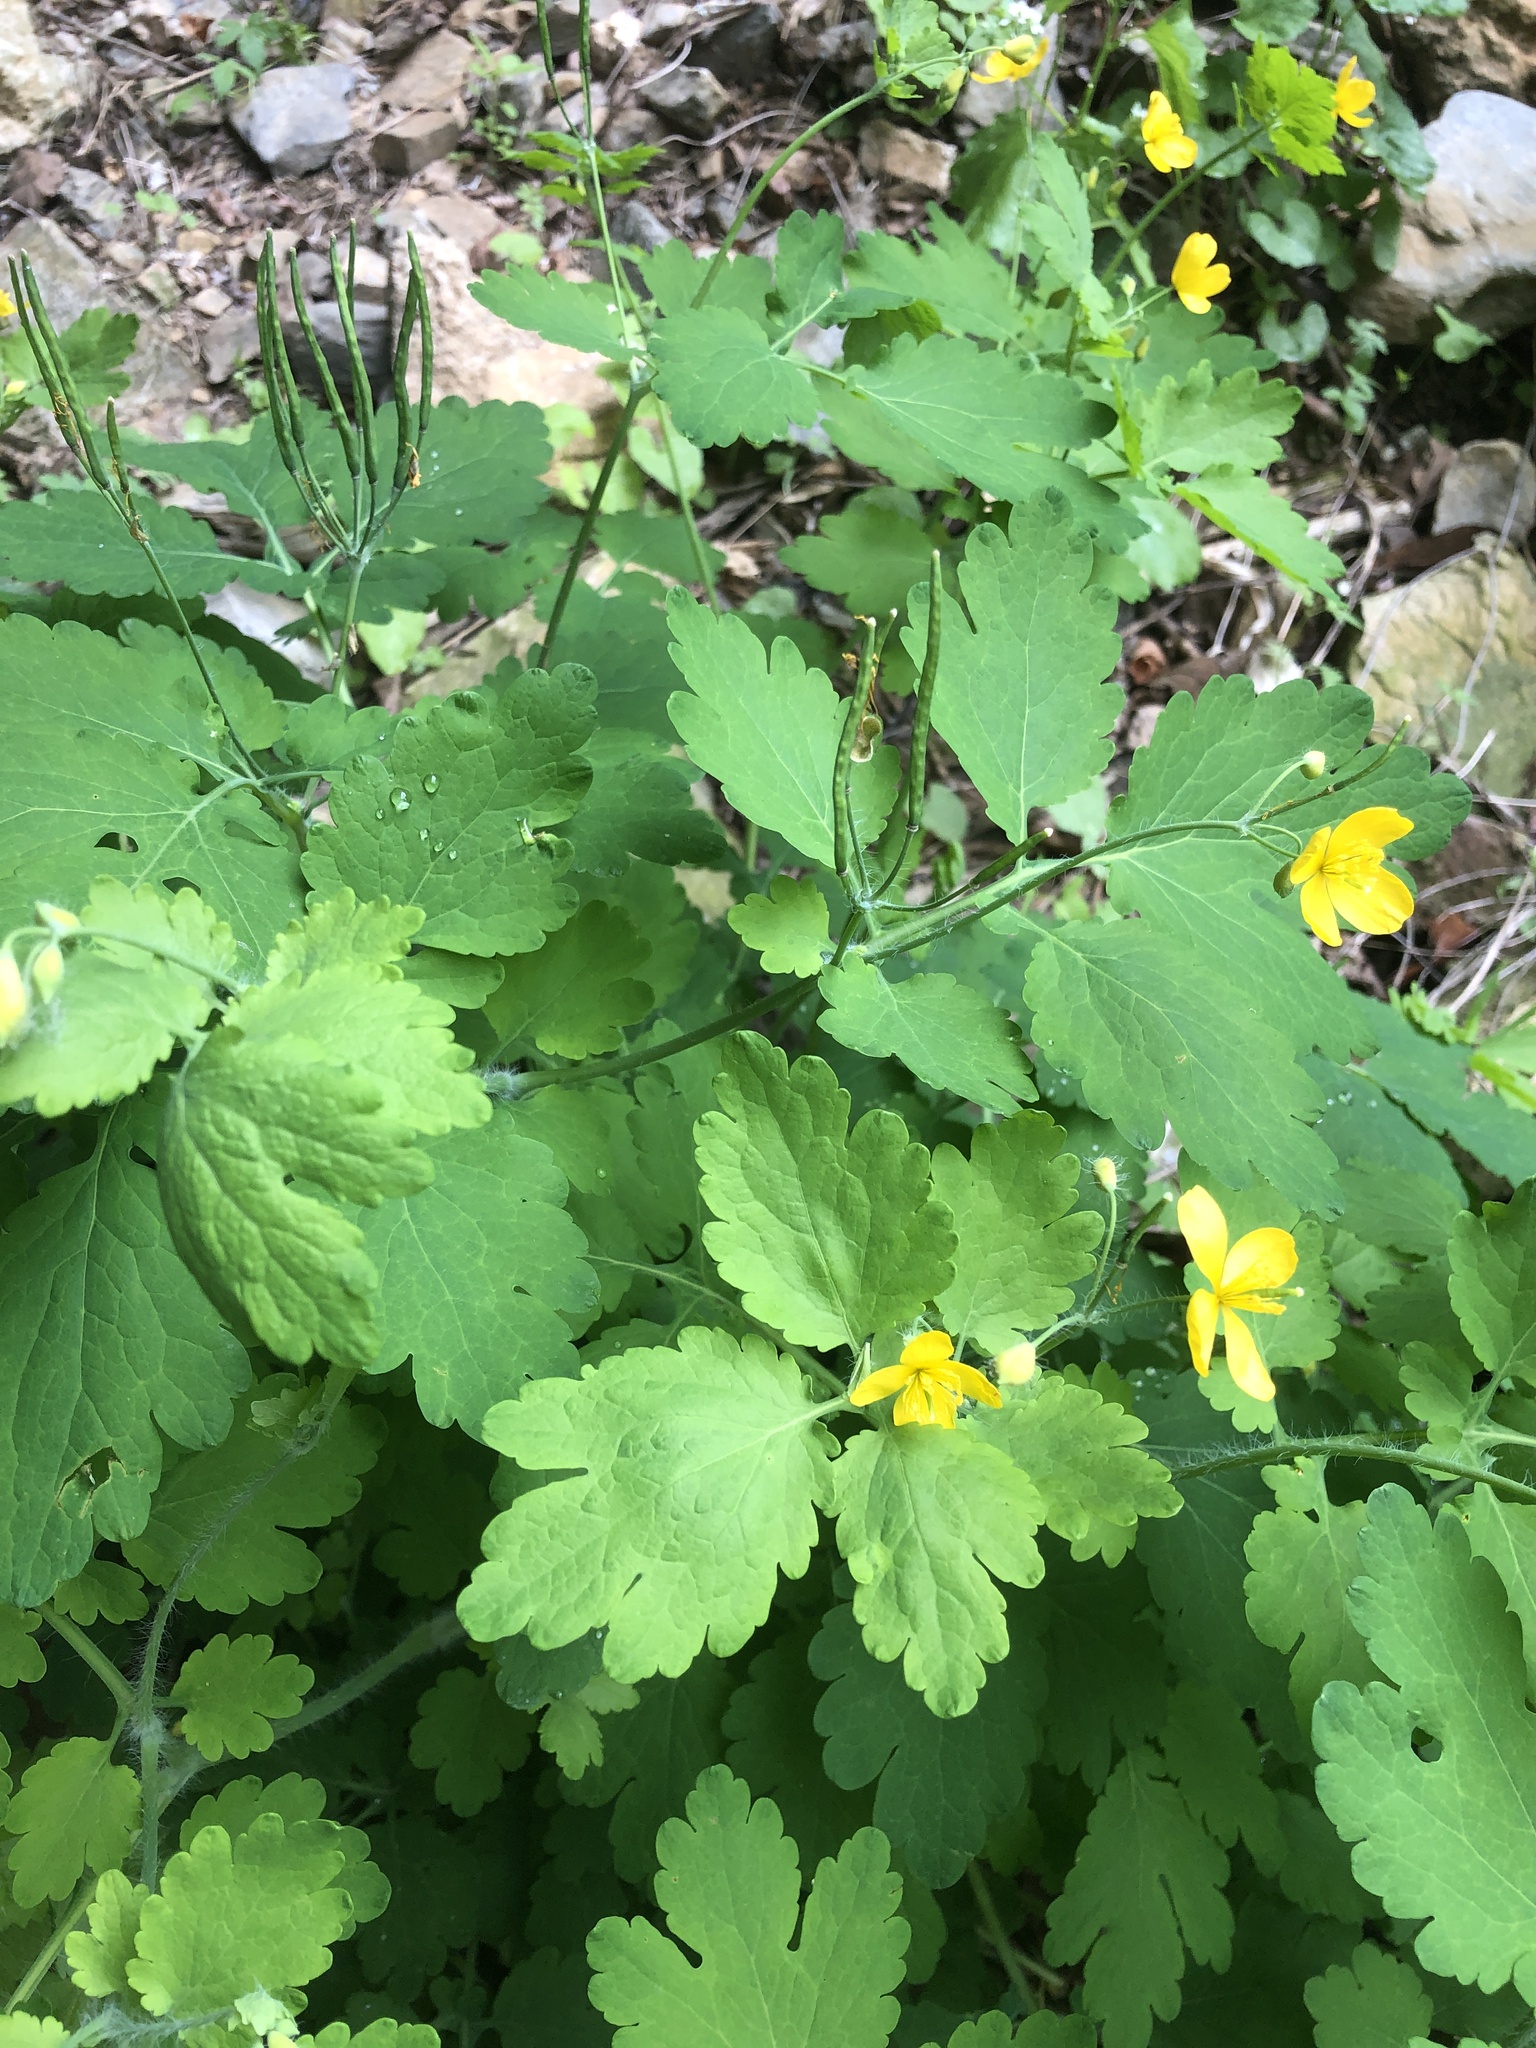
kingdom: Plantae
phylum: Tracheophyta
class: Magnoliopsida
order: Ranunculales
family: Papaveraceae
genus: Chelidonium
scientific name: Chelidonium majus
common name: Greater celandine
